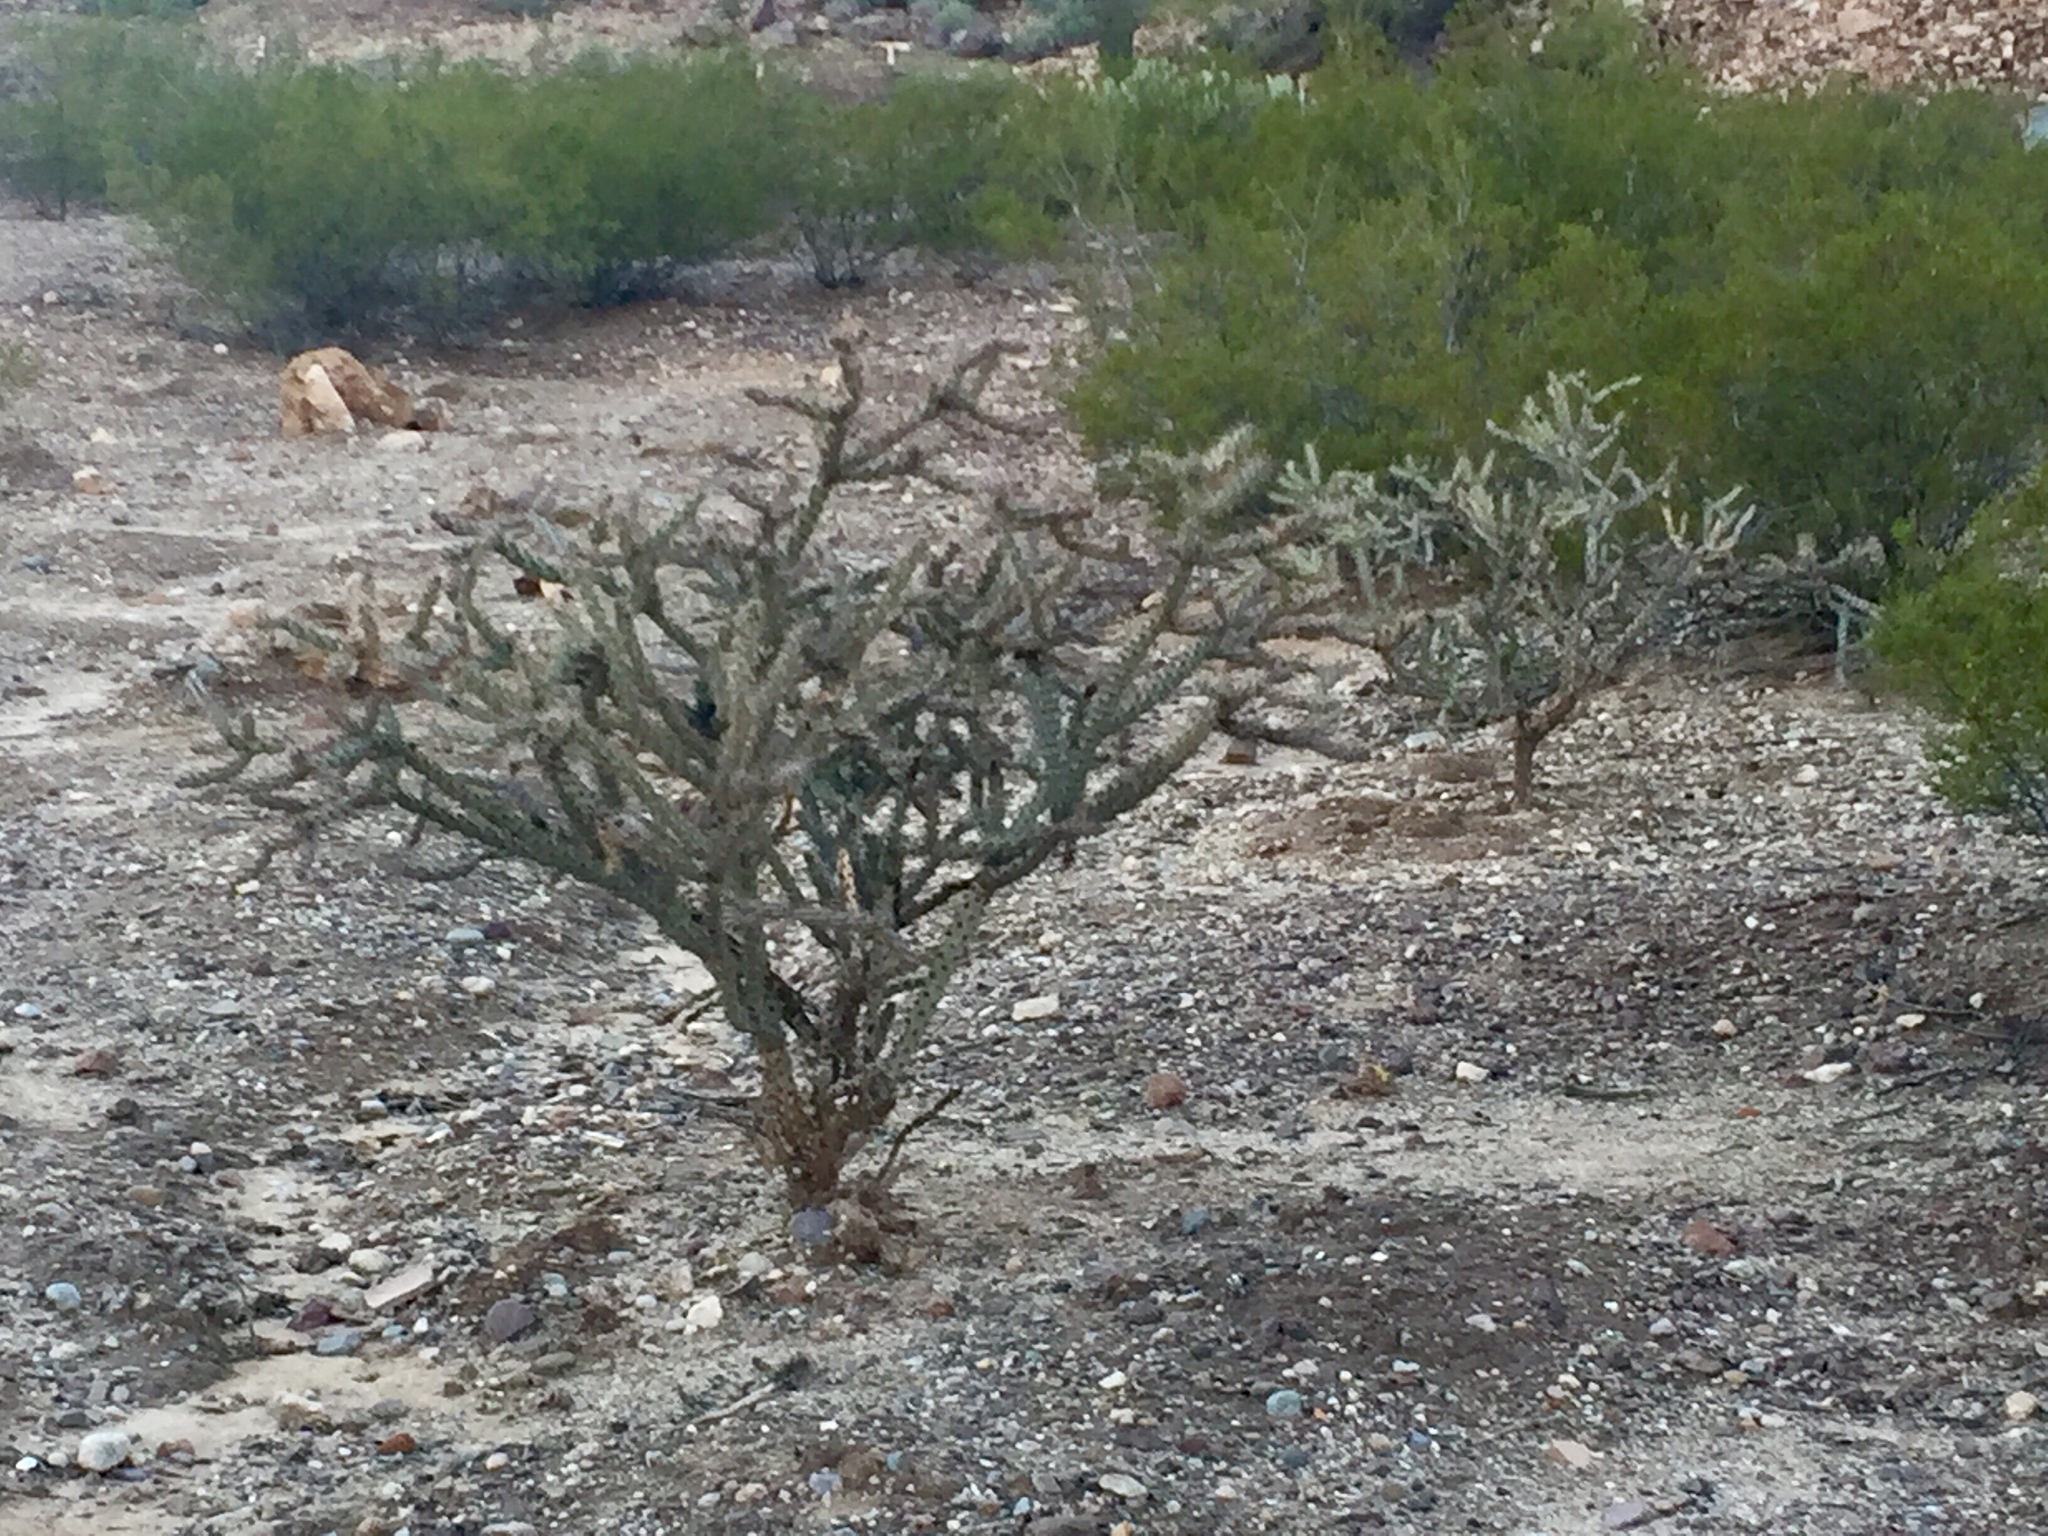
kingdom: Plantae
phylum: Tracheophyta
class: Magnoliopsida
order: Caryophyllales
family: Cactaceae
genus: Cylindropuntia
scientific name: Cylindropuntia imbricata
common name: Candelabrum cactus
